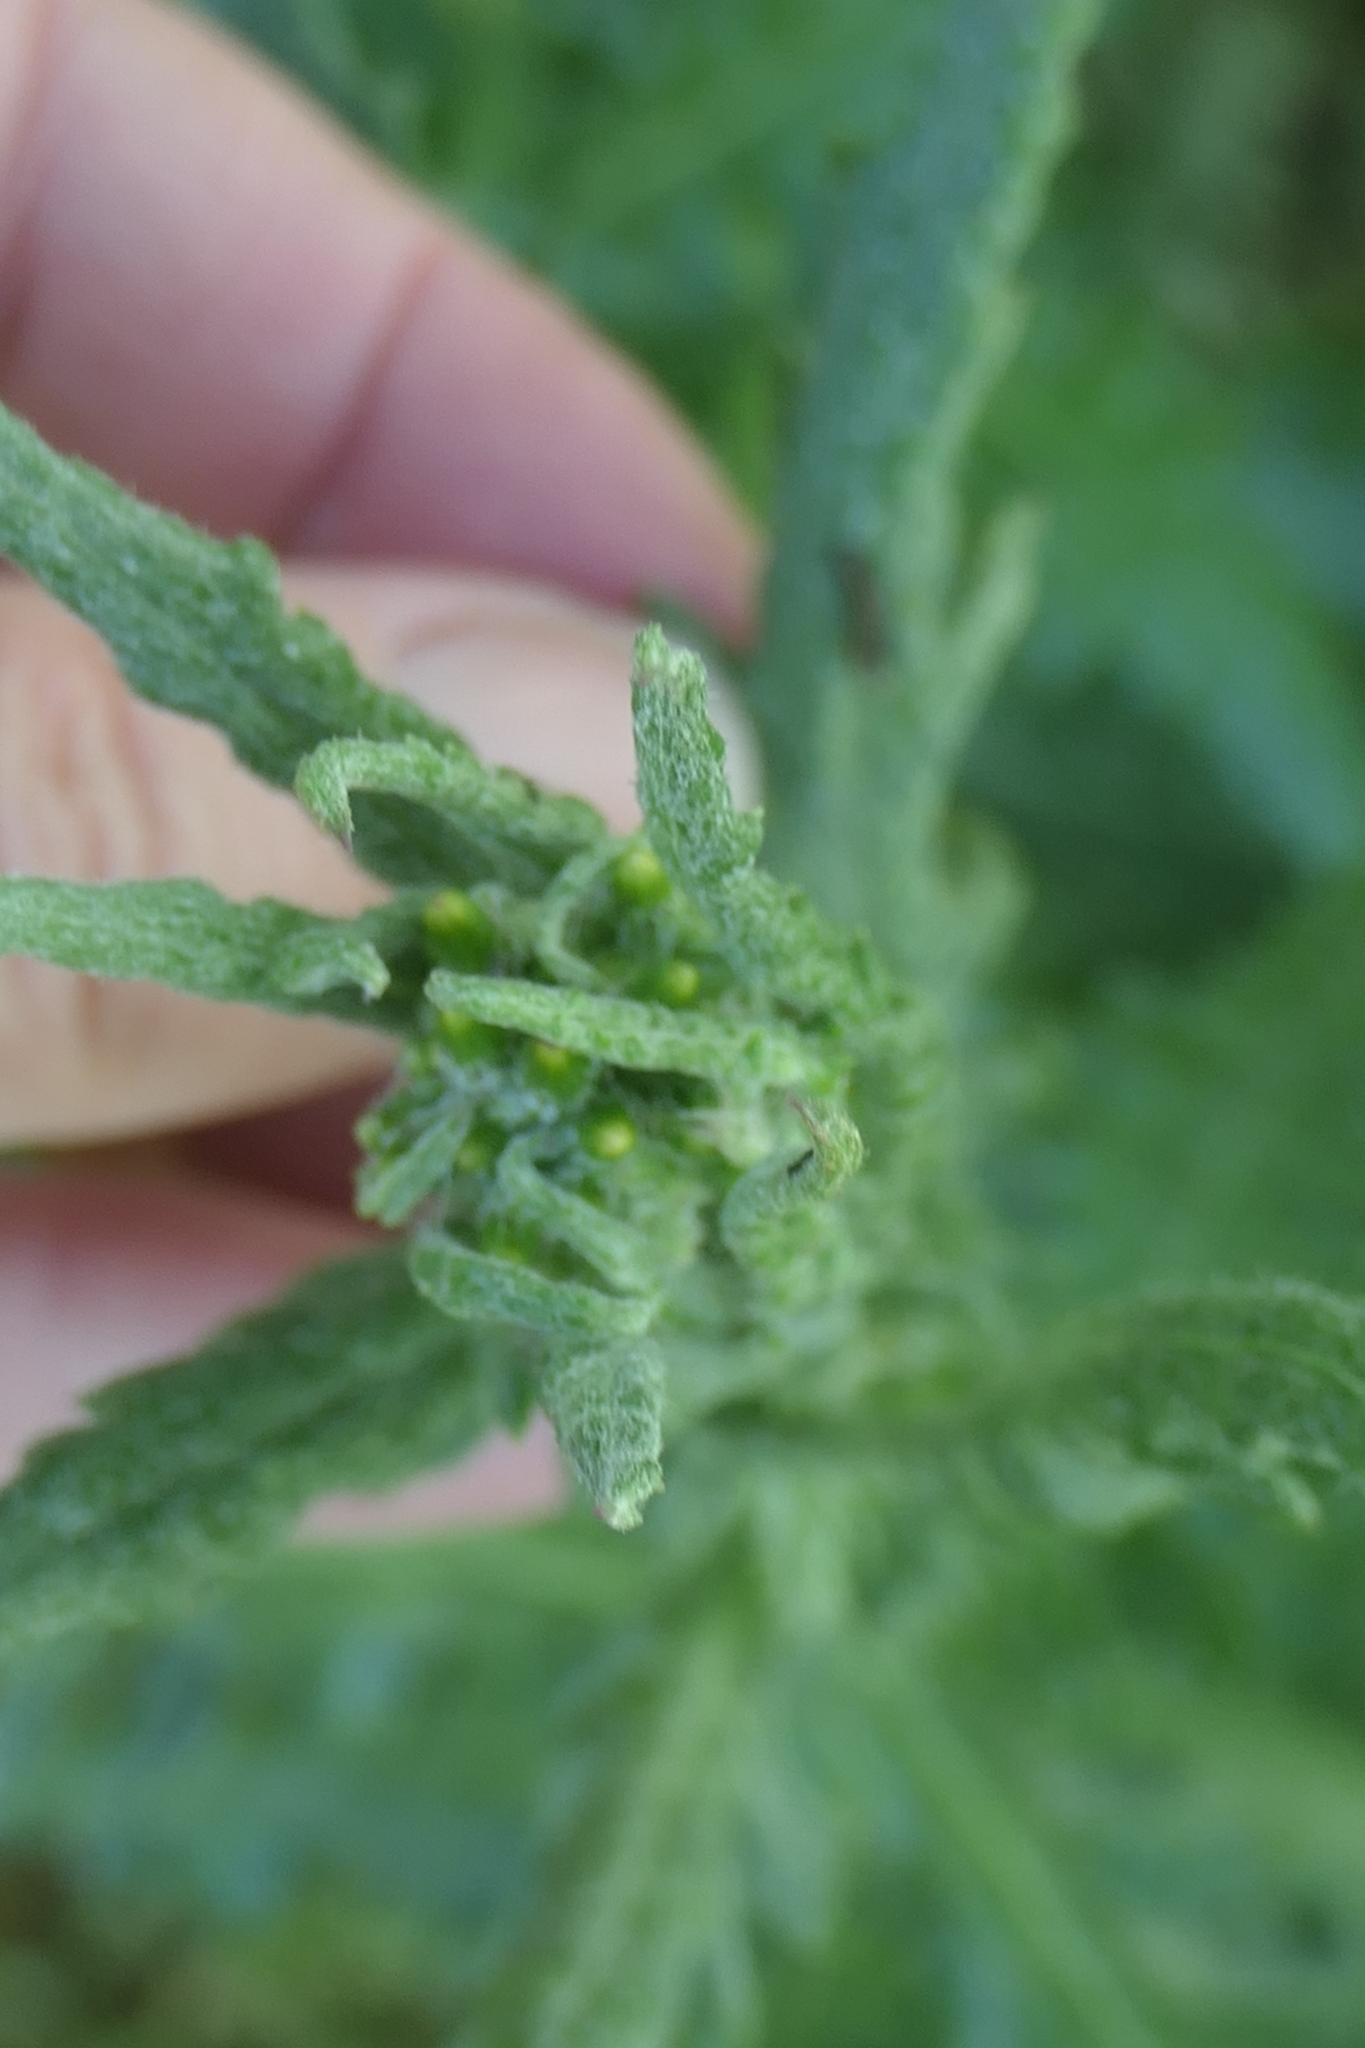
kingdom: Animalia
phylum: Arthropoda
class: Insecta
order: Lepidoptera
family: Erebidae
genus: Nyctemera
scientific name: Nyctemera annulatum
